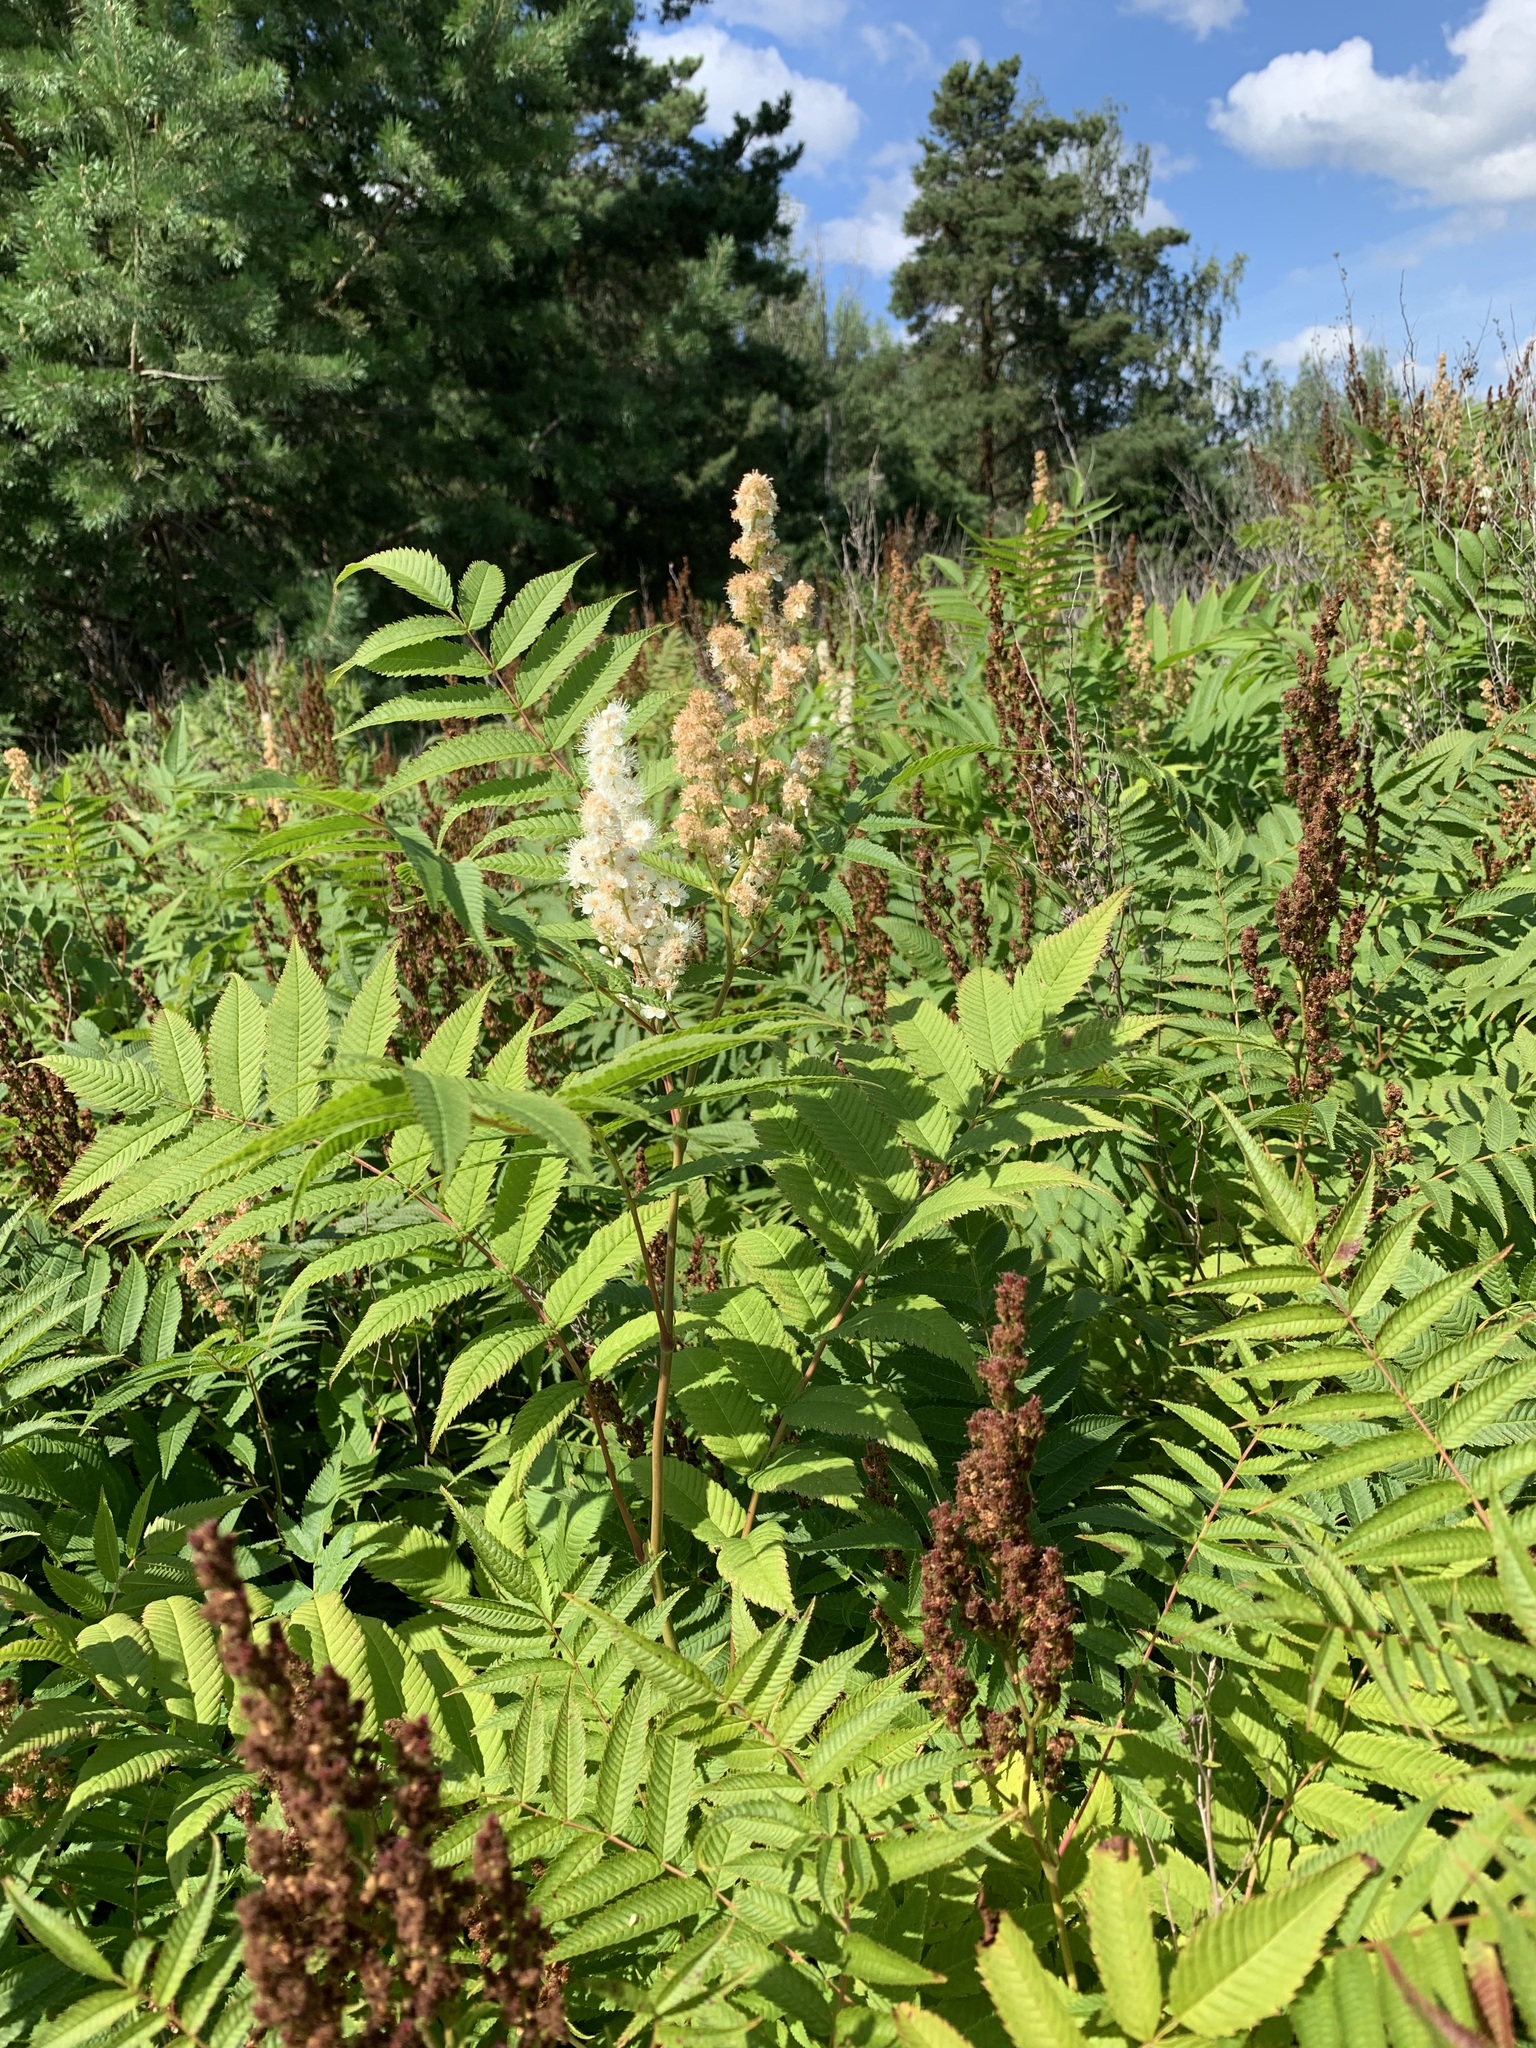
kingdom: Plantae
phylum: Tracheophyta
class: Magnoliopsida
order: Rosales
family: Rosaceae
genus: Sorbaria
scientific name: Sorbaria sorbifolia
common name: False spiraea
